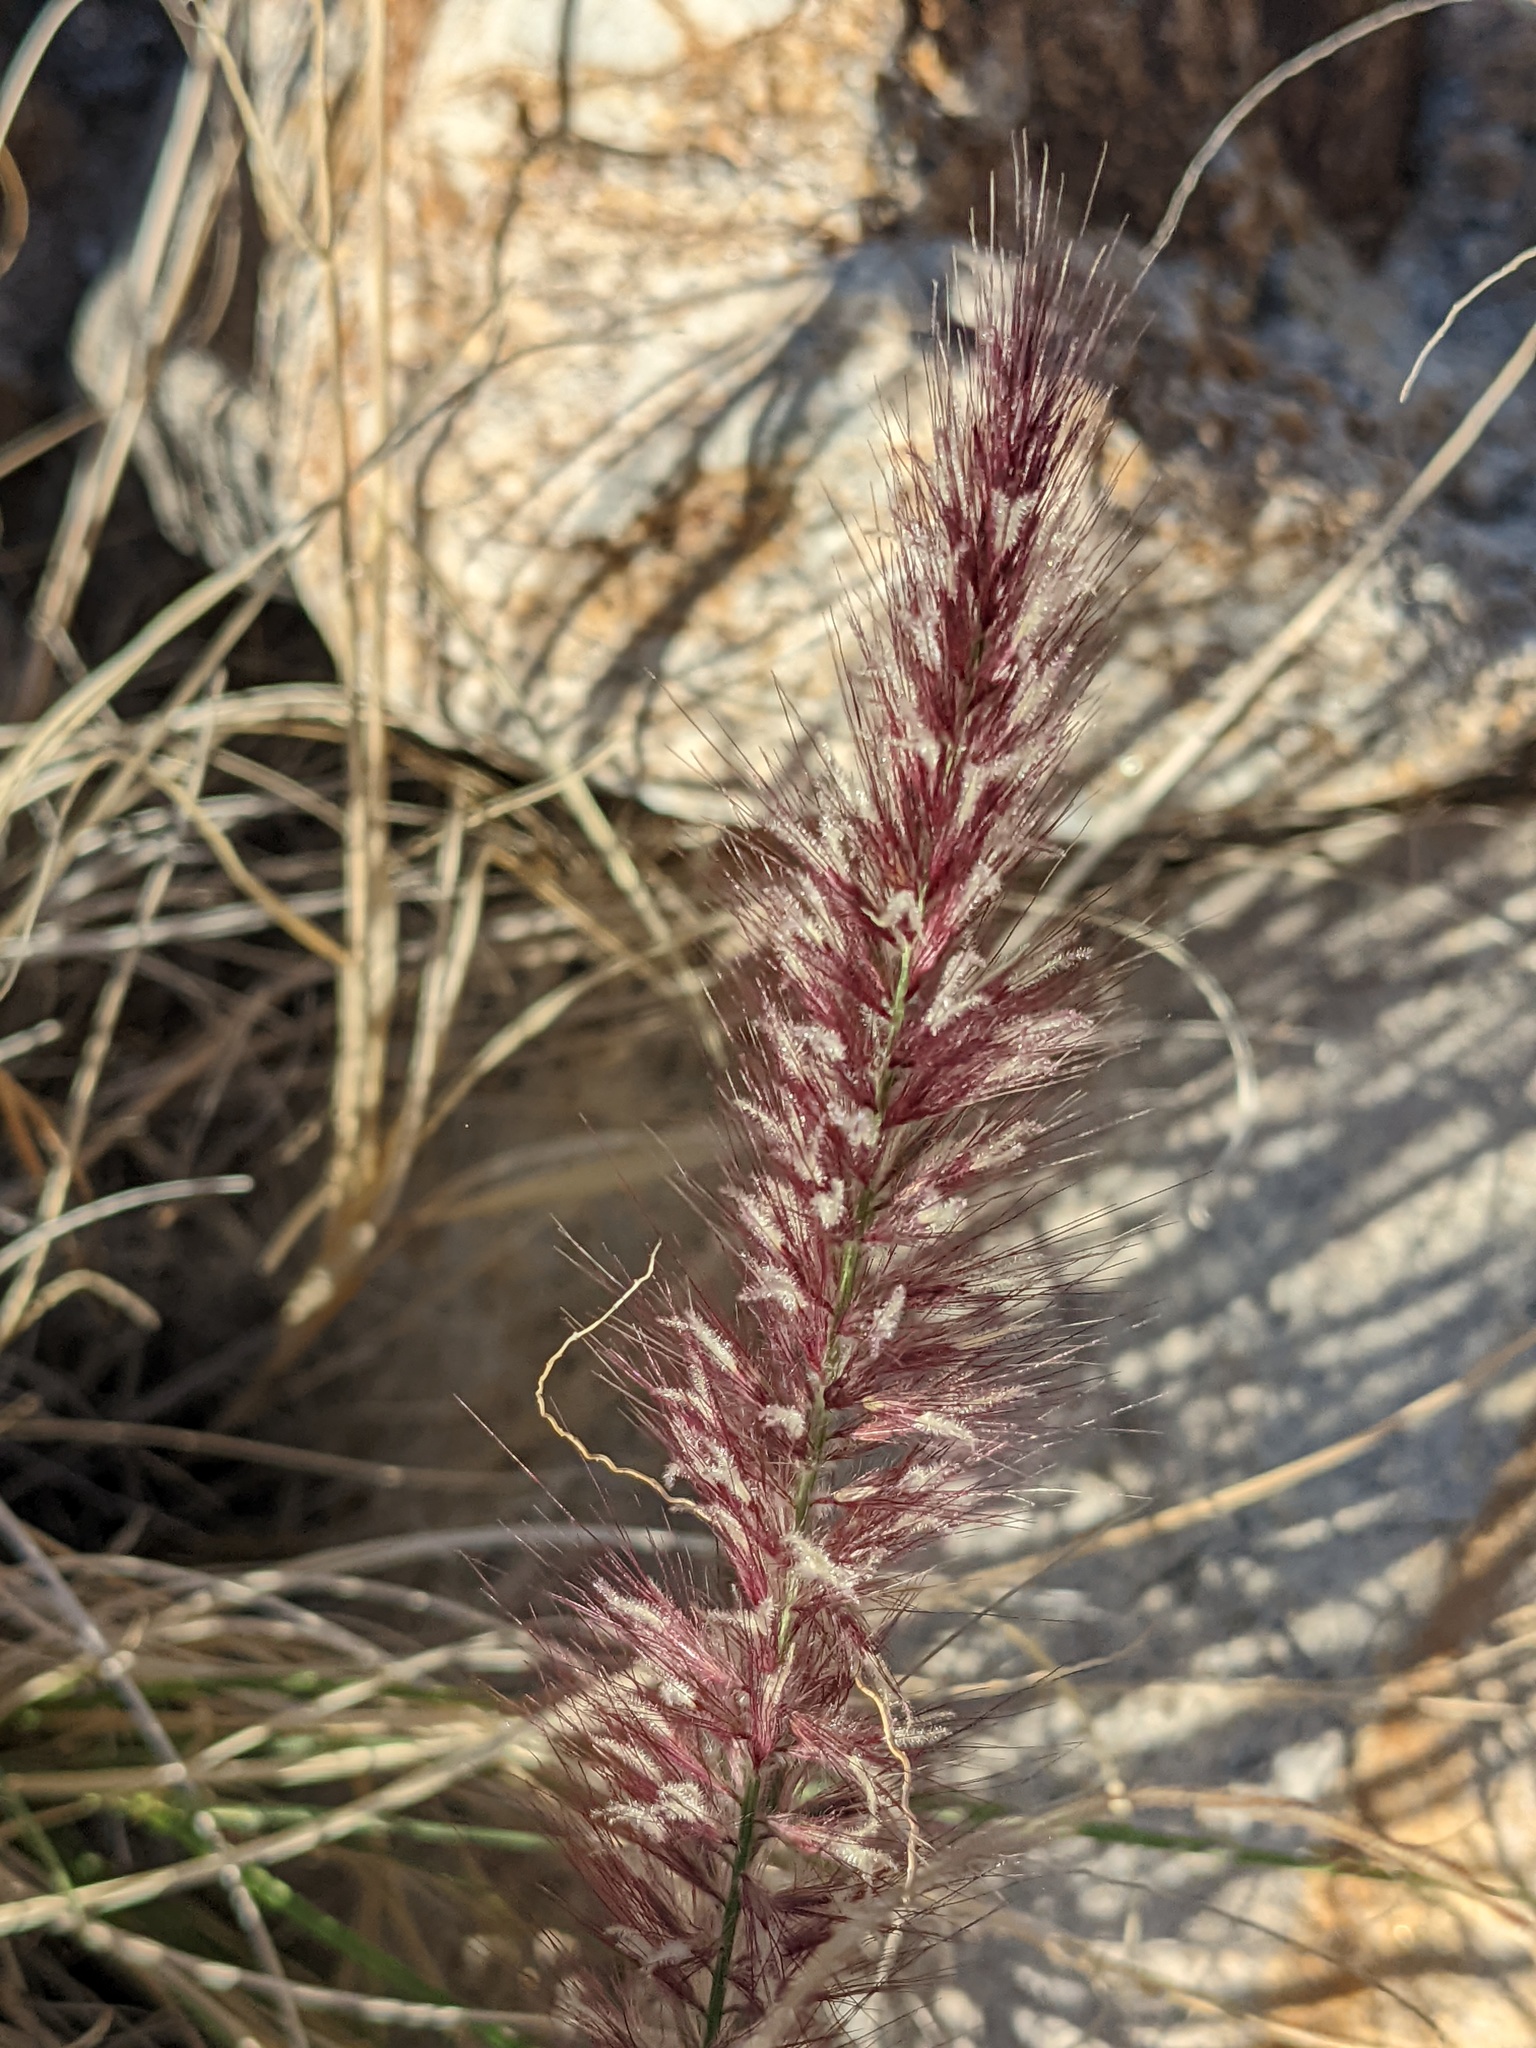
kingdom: Plantae
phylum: Tracheophyta
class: Liliopsida
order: Poales
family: Poaceae
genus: Cenchrus
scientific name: Cenchrus setaceus
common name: Crimson fountaingrass
